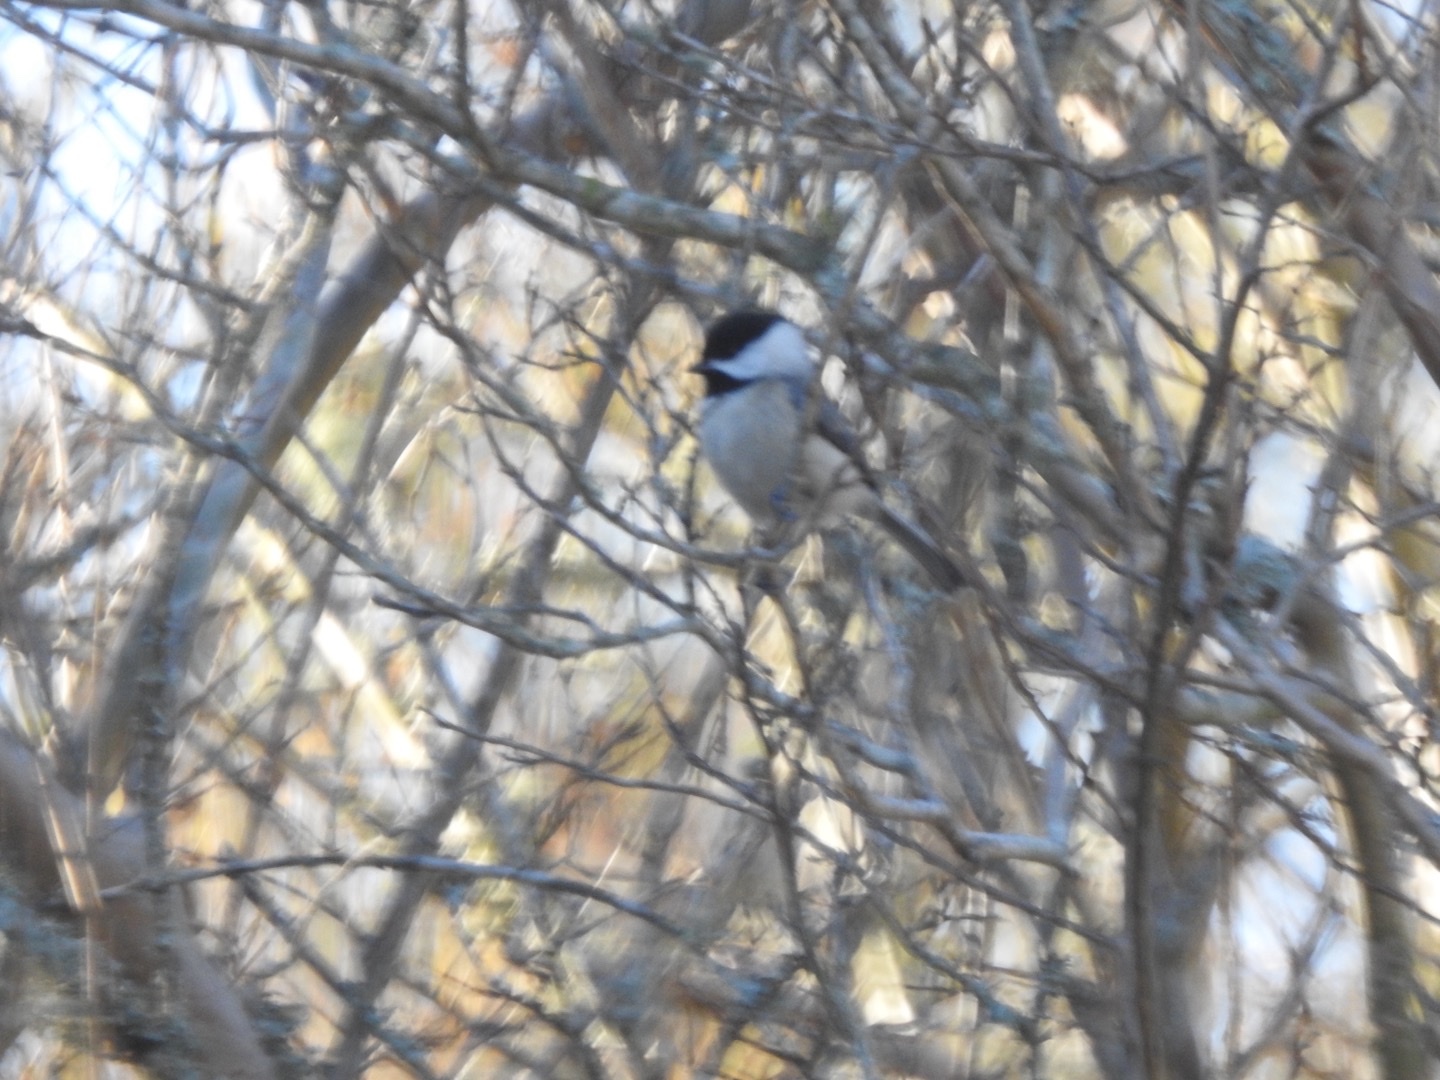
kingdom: Animalia
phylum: Chordata
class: Aves
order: Passeriformes
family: Paridae
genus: Poecile
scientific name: Poecile carolinensis
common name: Carolina chickadee
